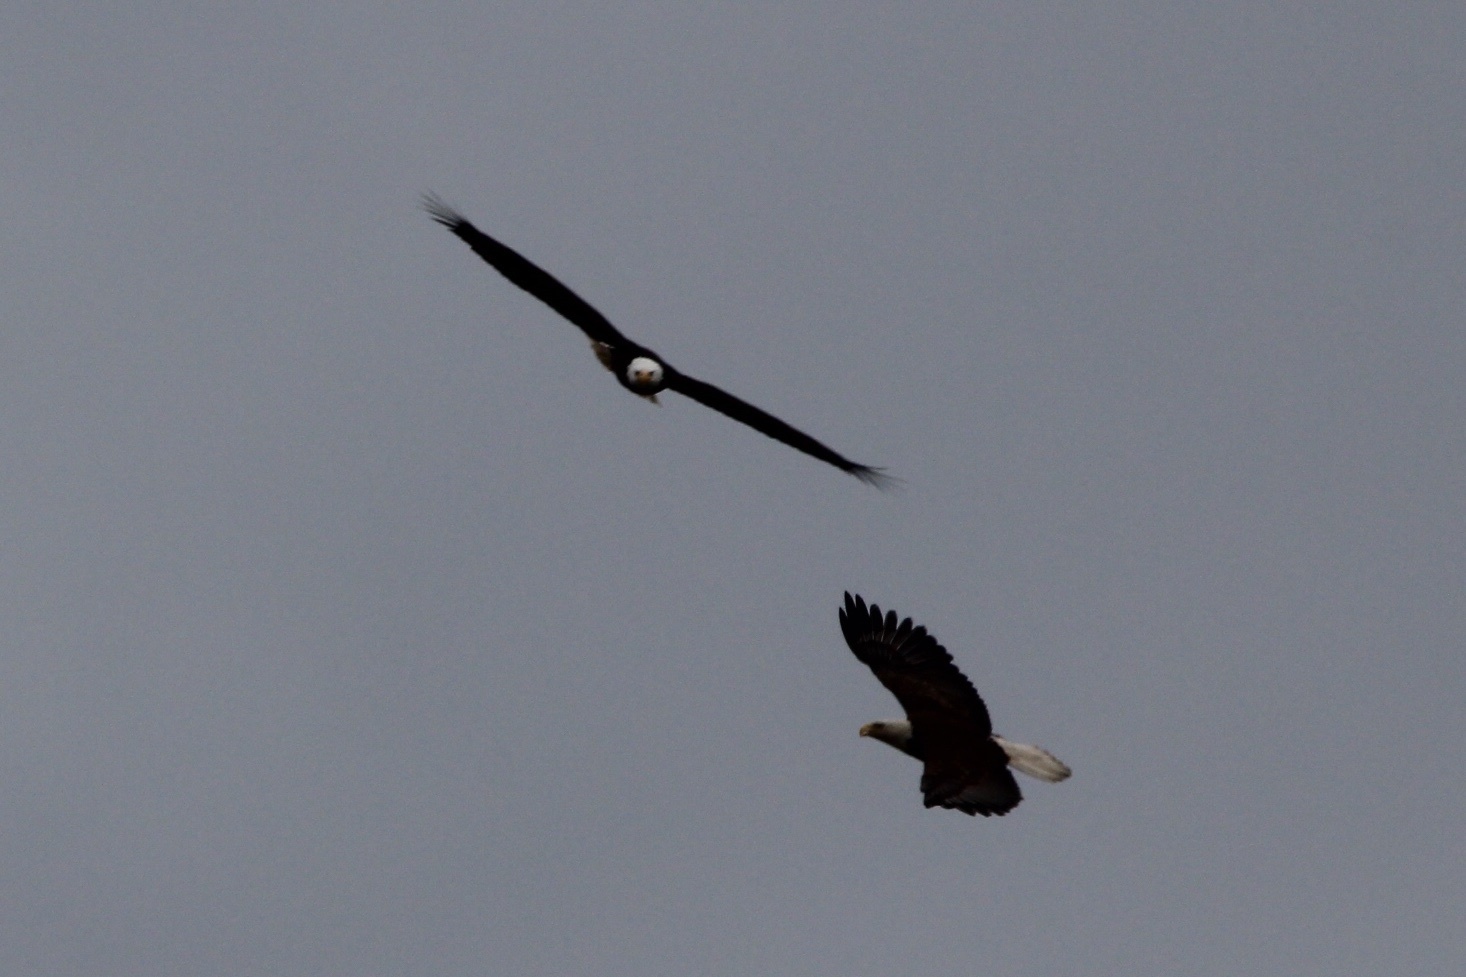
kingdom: Animalia
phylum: Chordata
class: Aves
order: Accipitriformes
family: Accipitridae
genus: Haliaeetus
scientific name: Haliaeetus leucocephalus
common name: Bald eagle
